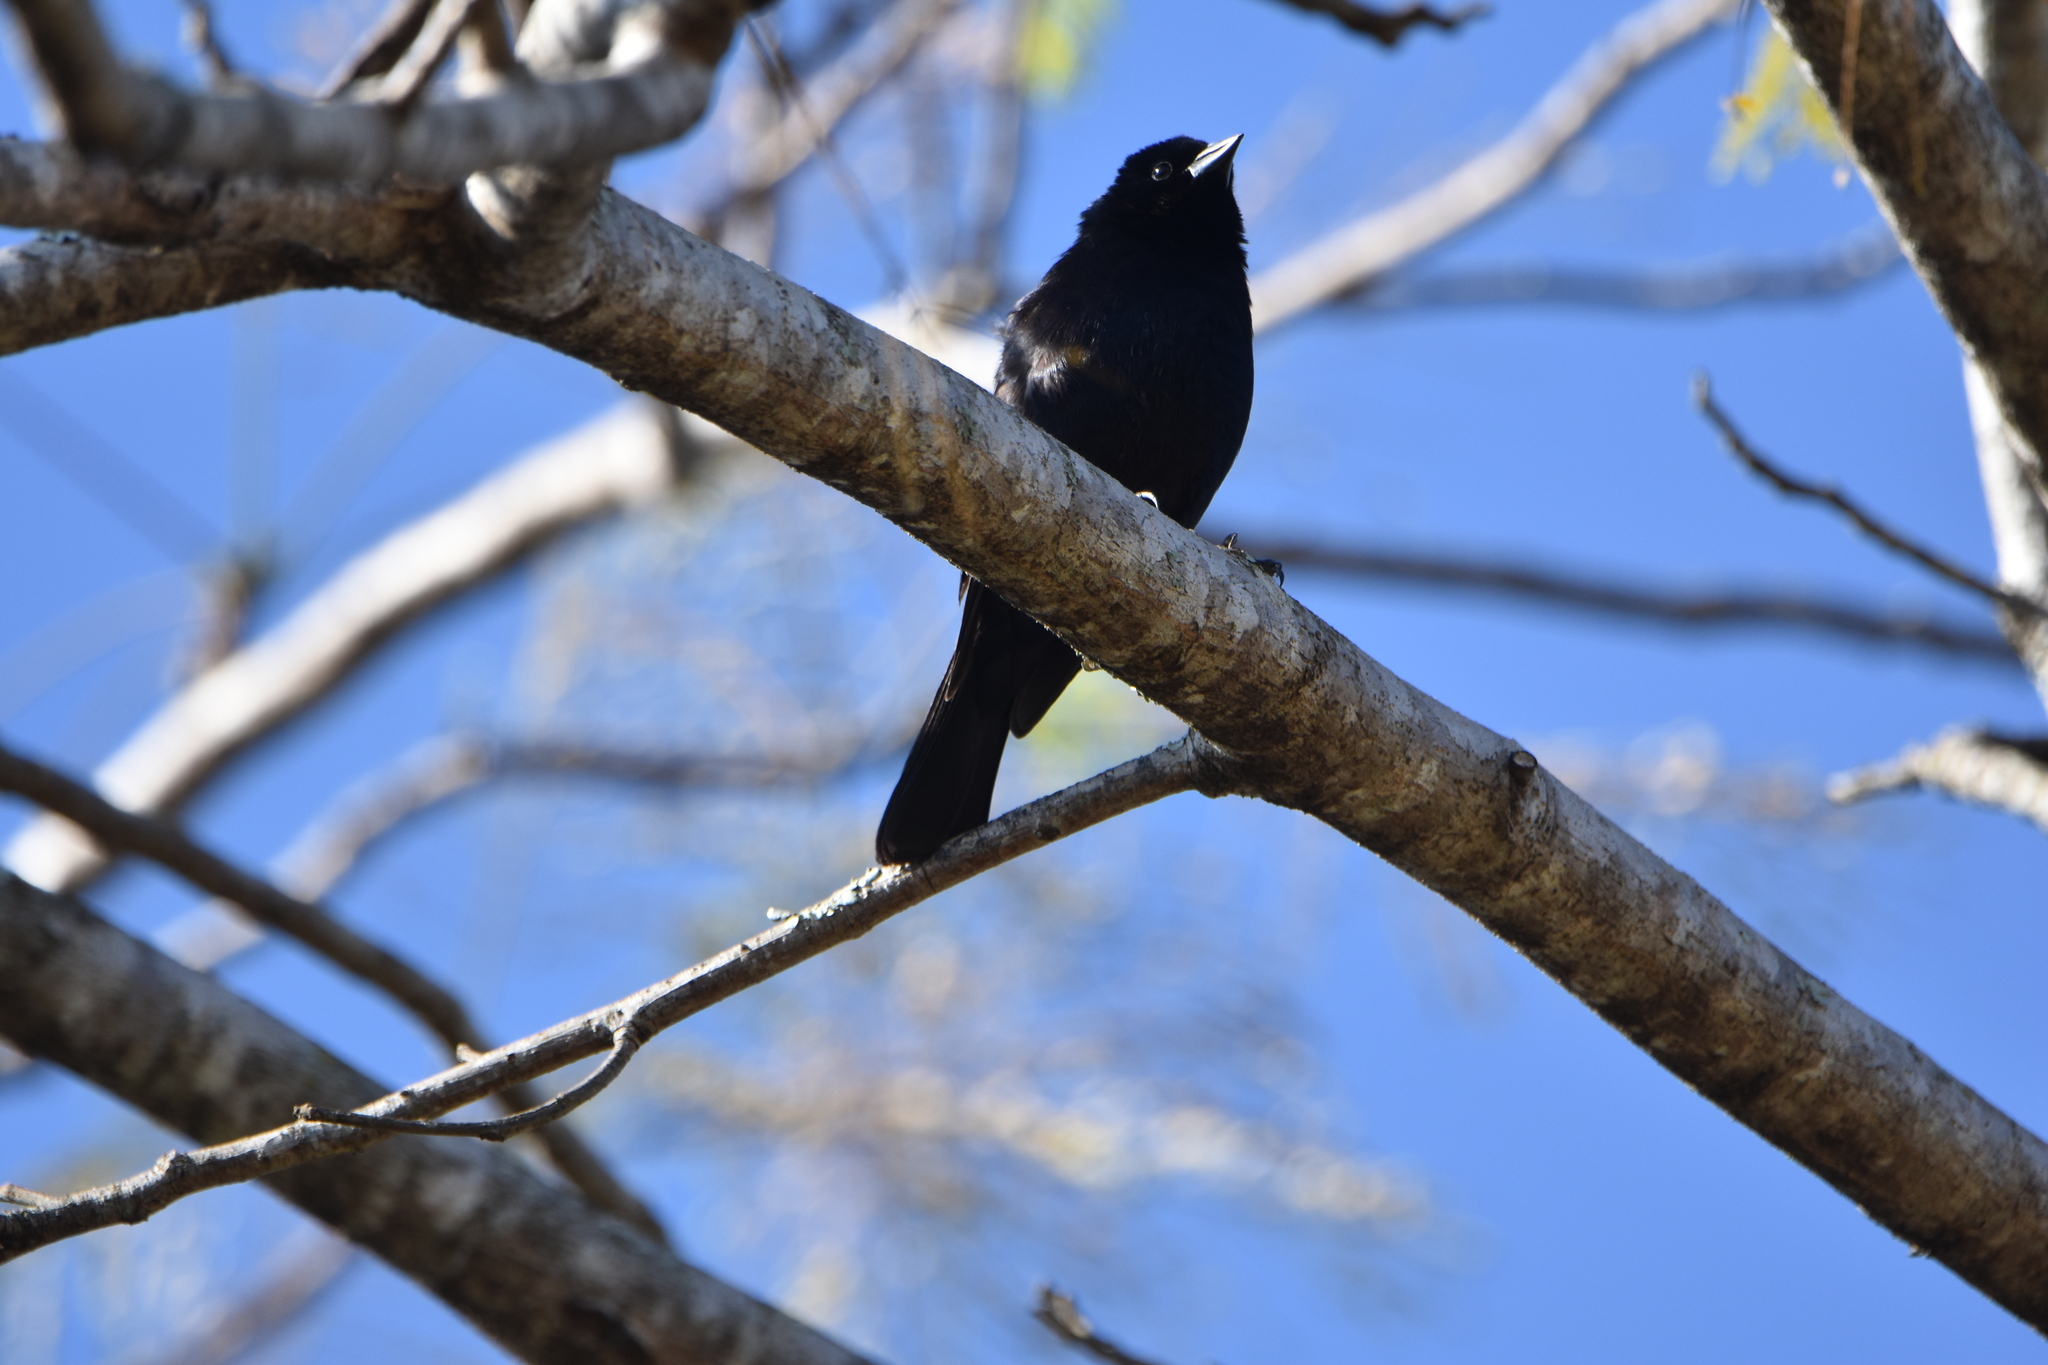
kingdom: Animalia
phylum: Chordata
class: Aves
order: Passeriformes
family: Icteridae
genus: Molothrus
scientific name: Molothrus bonariensis
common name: Shiny cowbird
